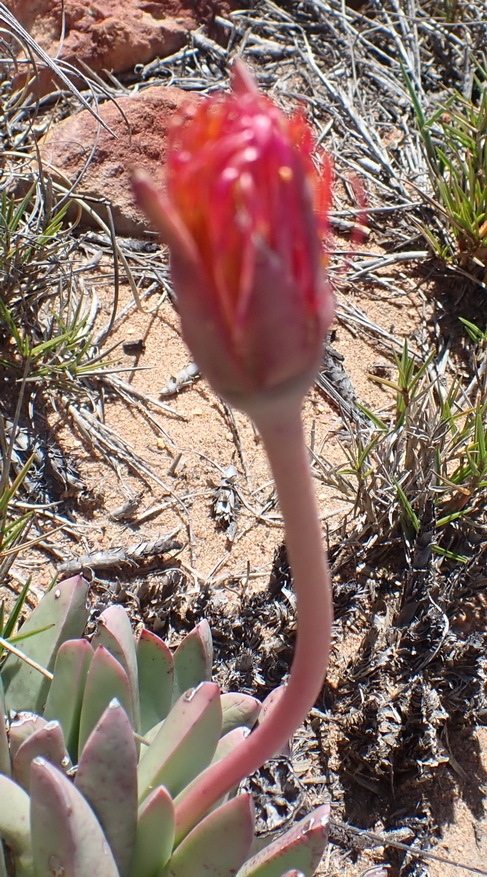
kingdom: Plantae
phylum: Tracheophyta
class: Magnoliopsida
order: Caryophyllales
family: Aizoaceae
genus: Machairophyllum
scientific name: Machairophyllum albidum
